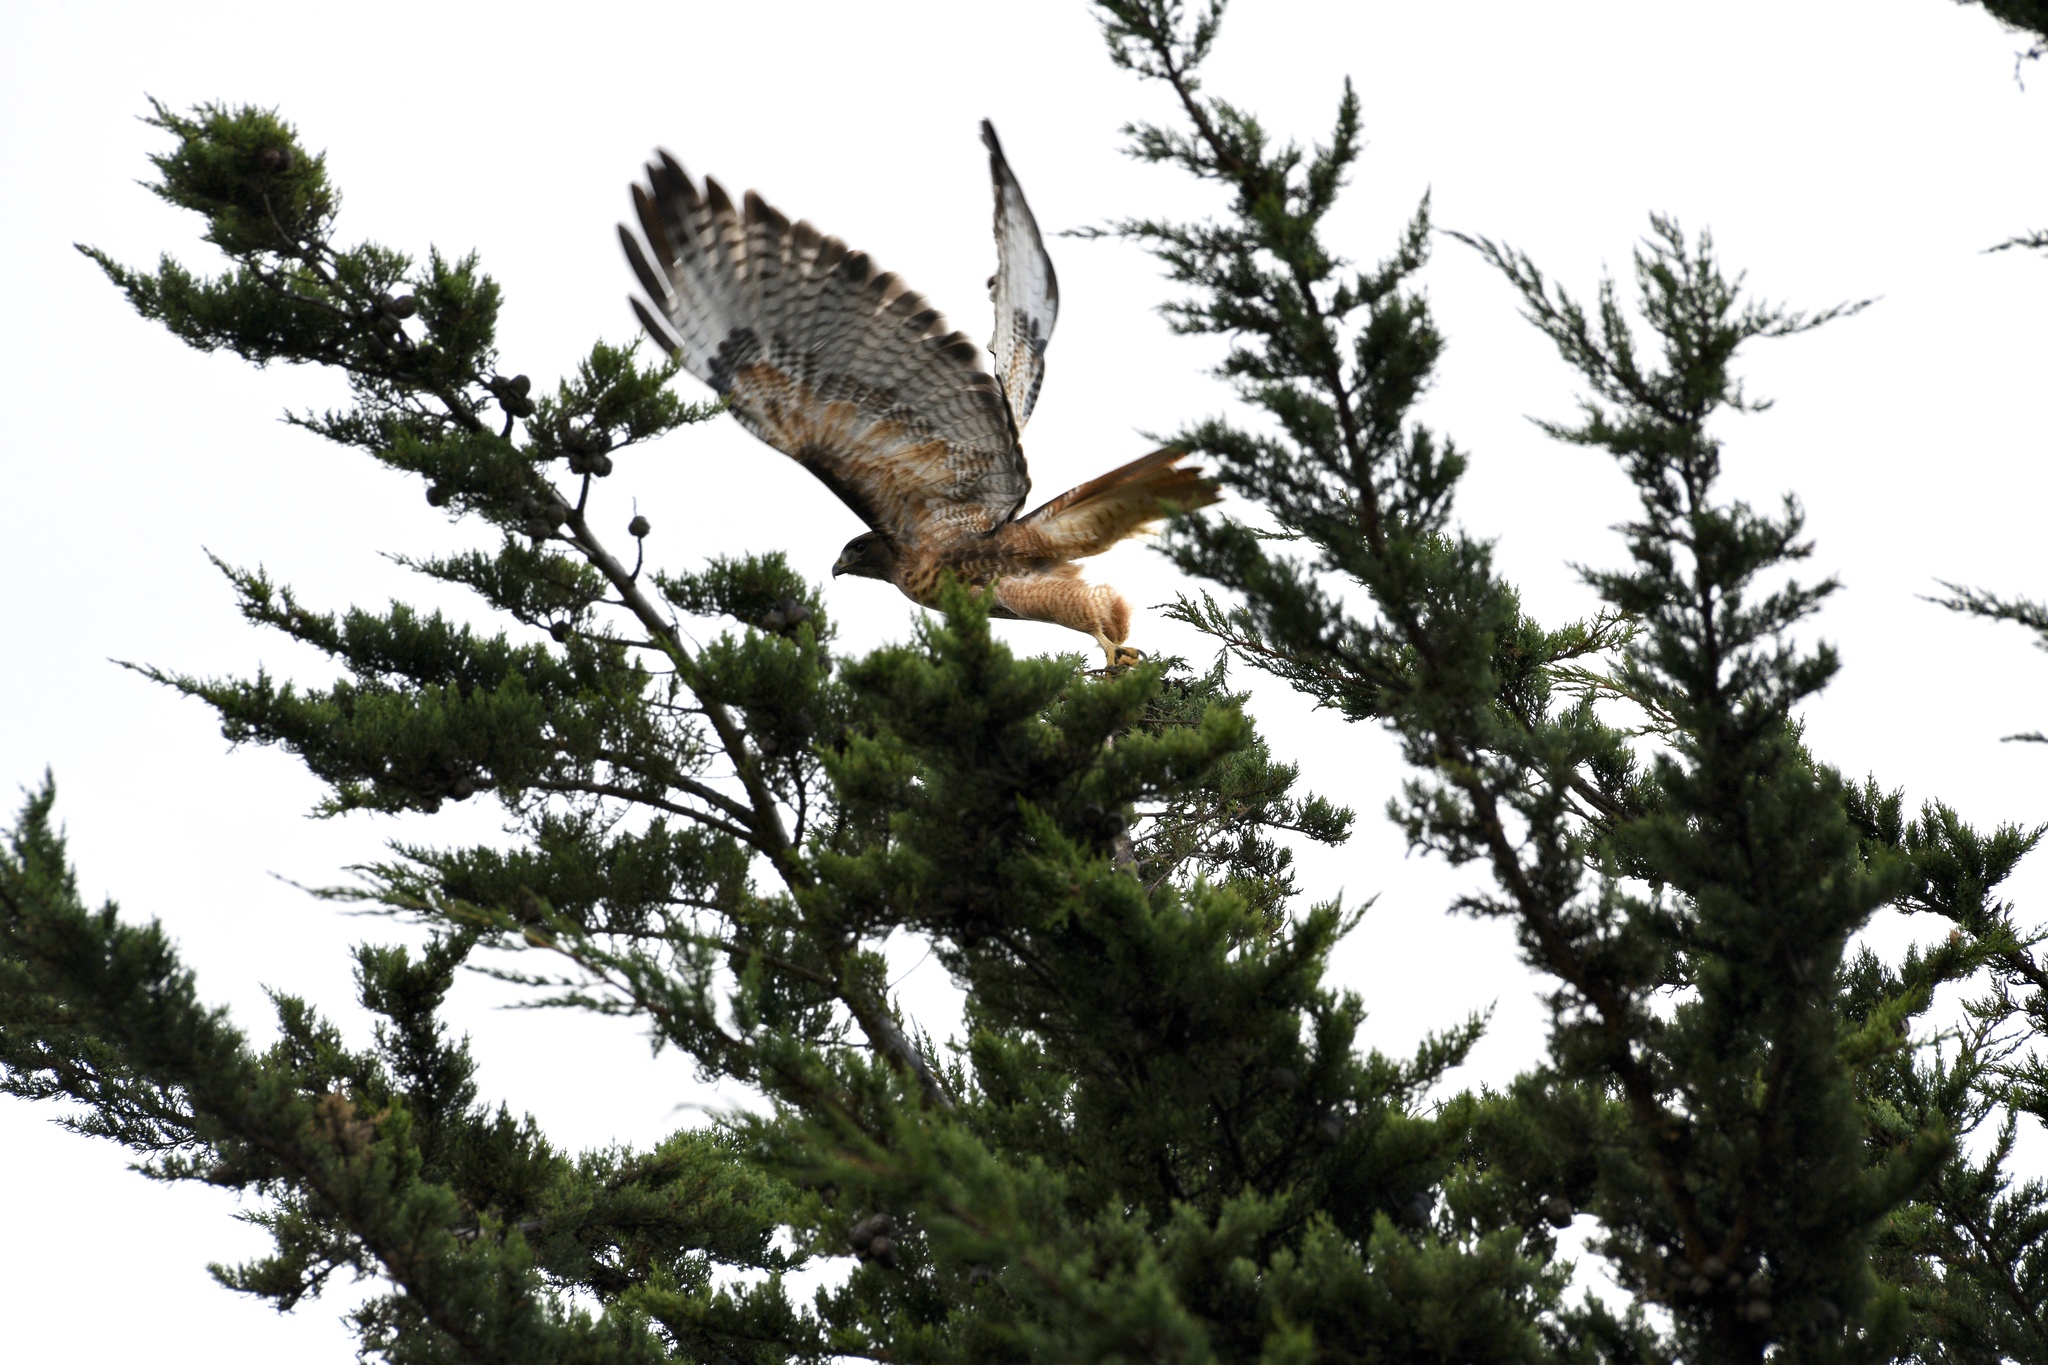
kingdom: Animalia
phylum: Chordata
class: Aves
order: Accipitriformes
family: Accipitridae
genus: Buteo
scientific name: Buteo jamaicensis
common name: Red-tailed hawk
